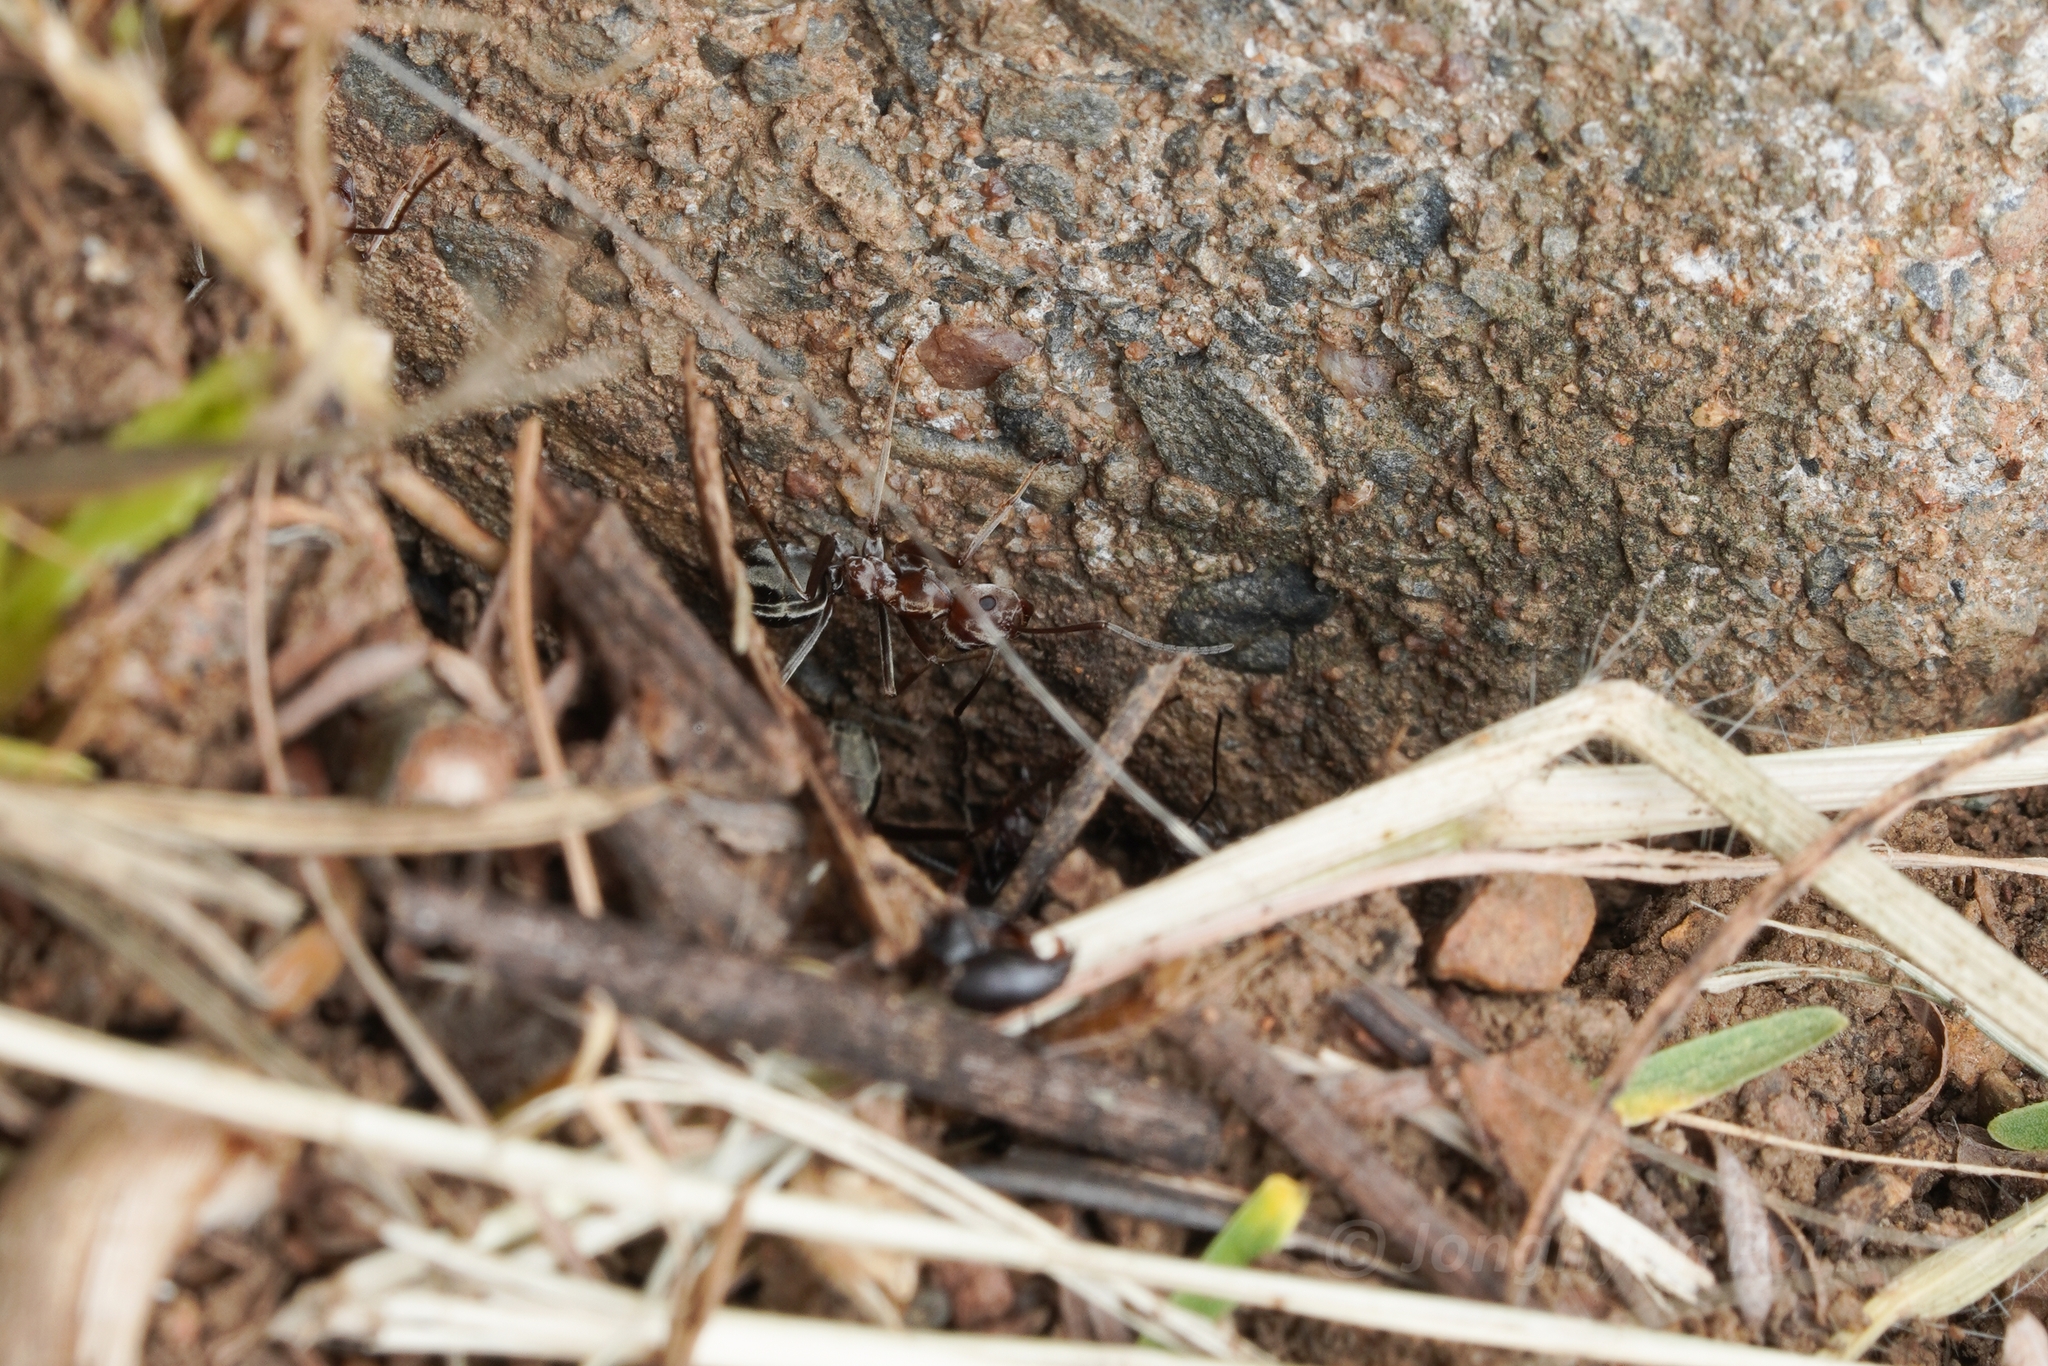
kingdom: Animalia
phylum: Arthropoda
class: Insecta
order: Hymenoptera
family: Formicidae
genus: Anoplolepis
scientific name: Anoplolepis custodiens
